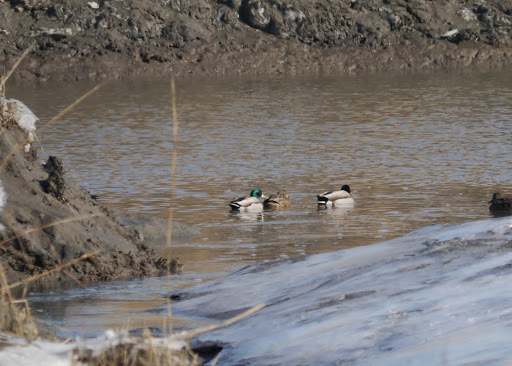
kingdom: Animalia
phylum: Chordata
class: Aves
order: Anseriformes
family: Anatidae
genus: Anas
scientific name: Anas platyrhynchos
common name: Mallard
